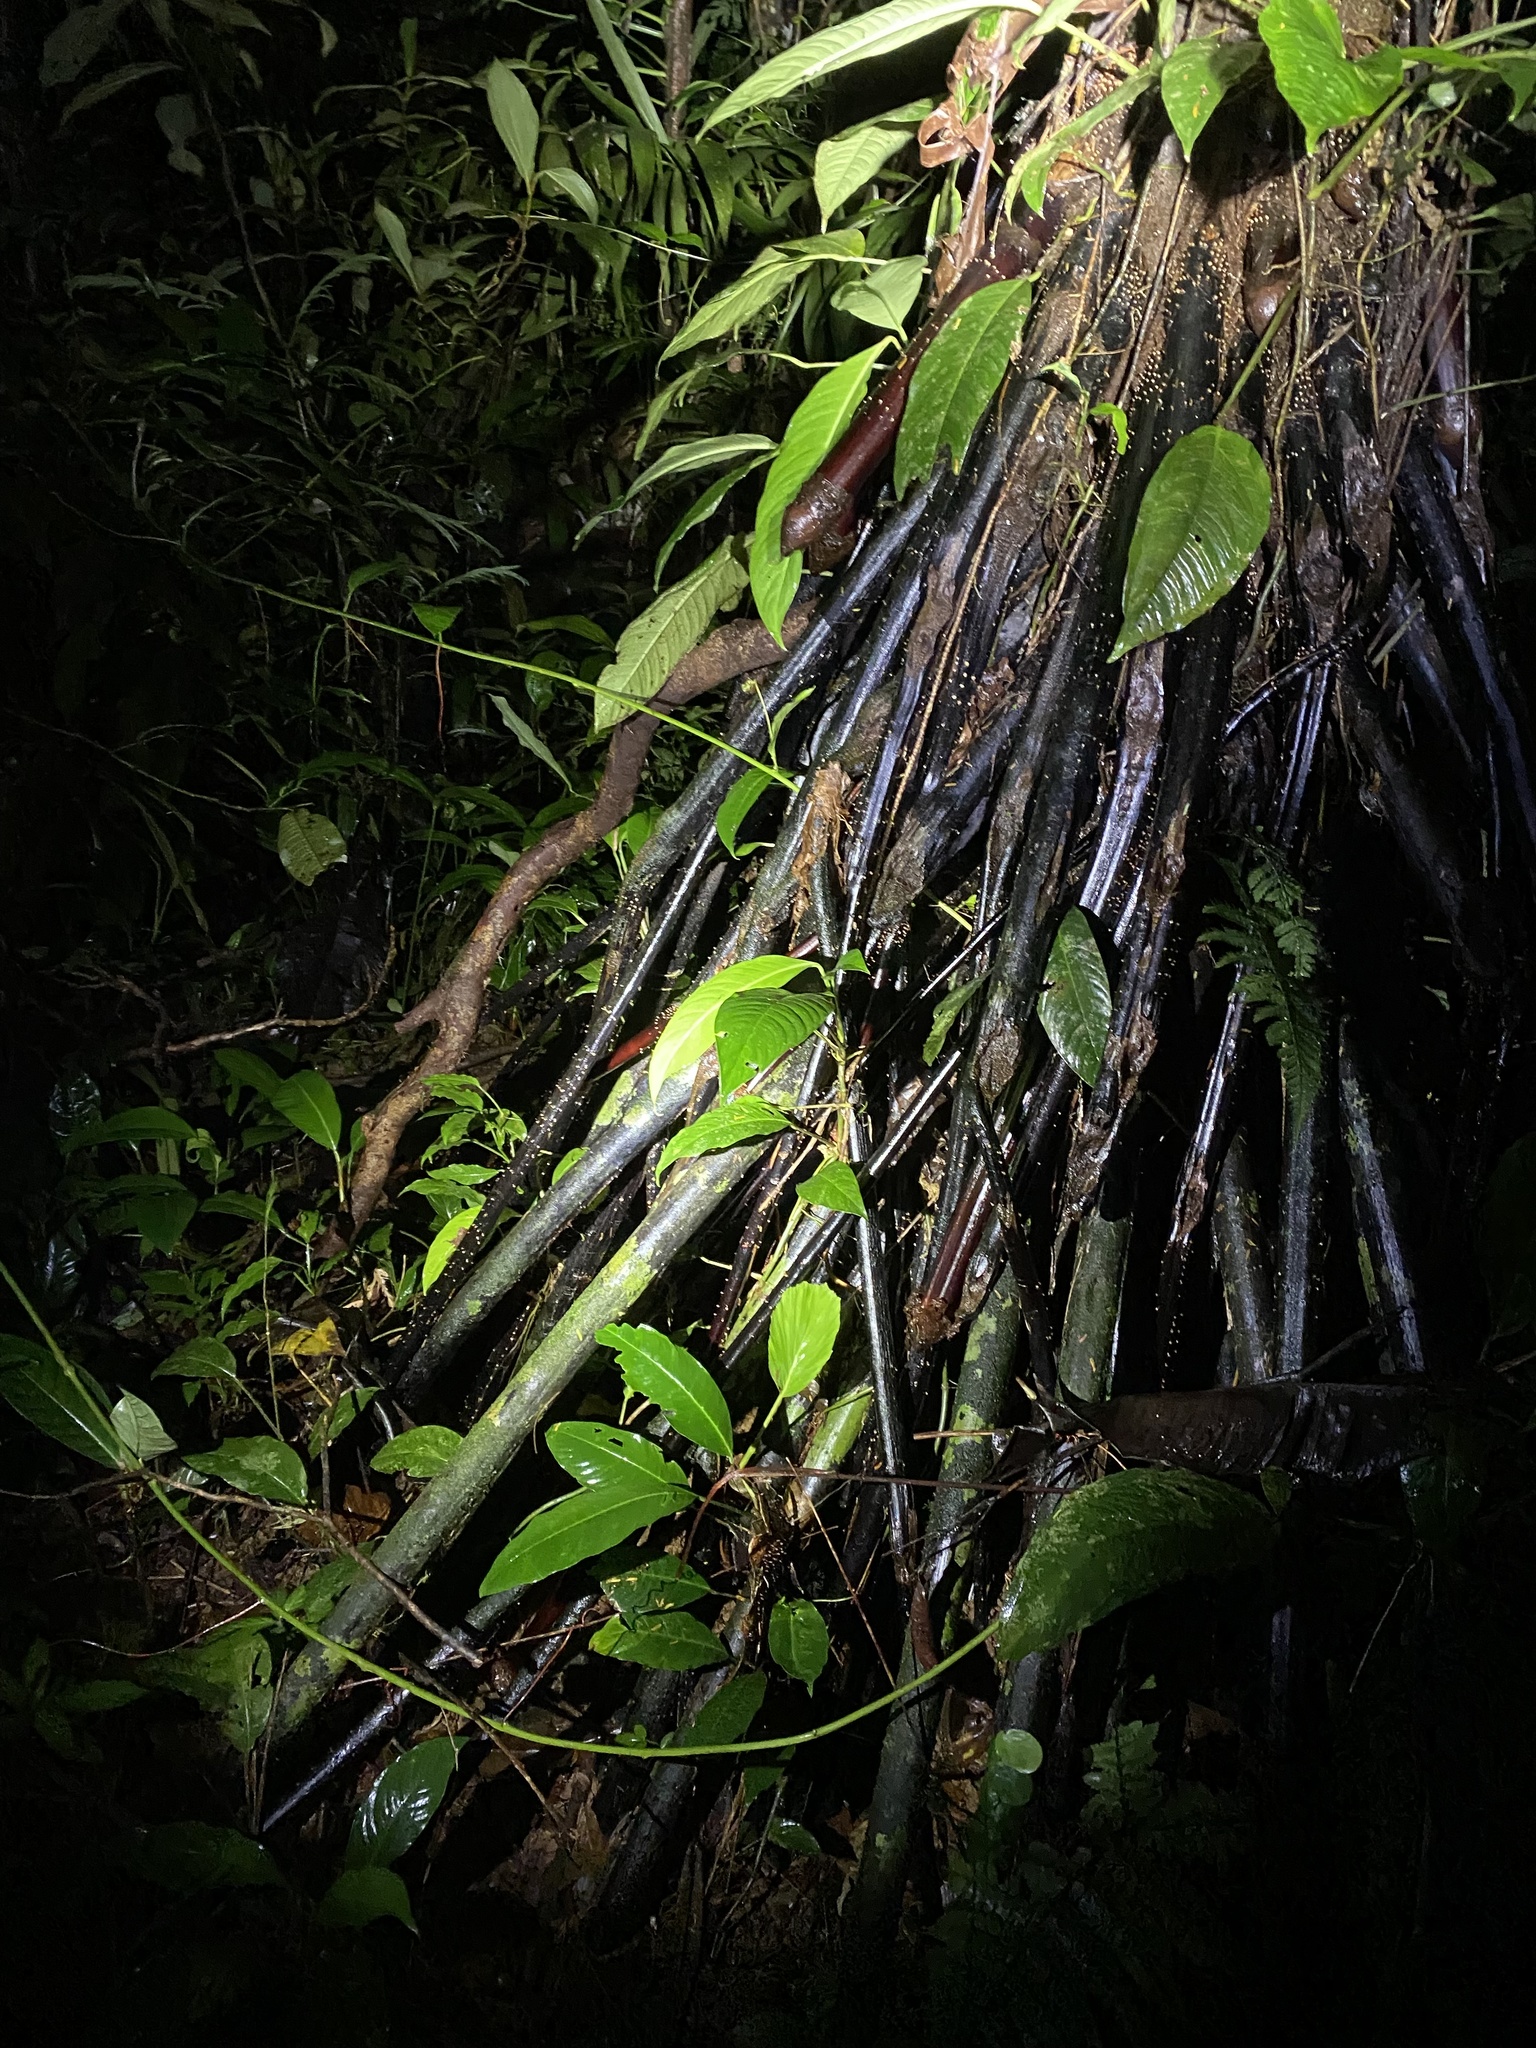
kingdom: Plantae
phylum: Tracheophyta
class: Liliopsida
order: Arecales
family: Arecaceae
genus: Iriartea
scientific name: Iriartea deltoidea
